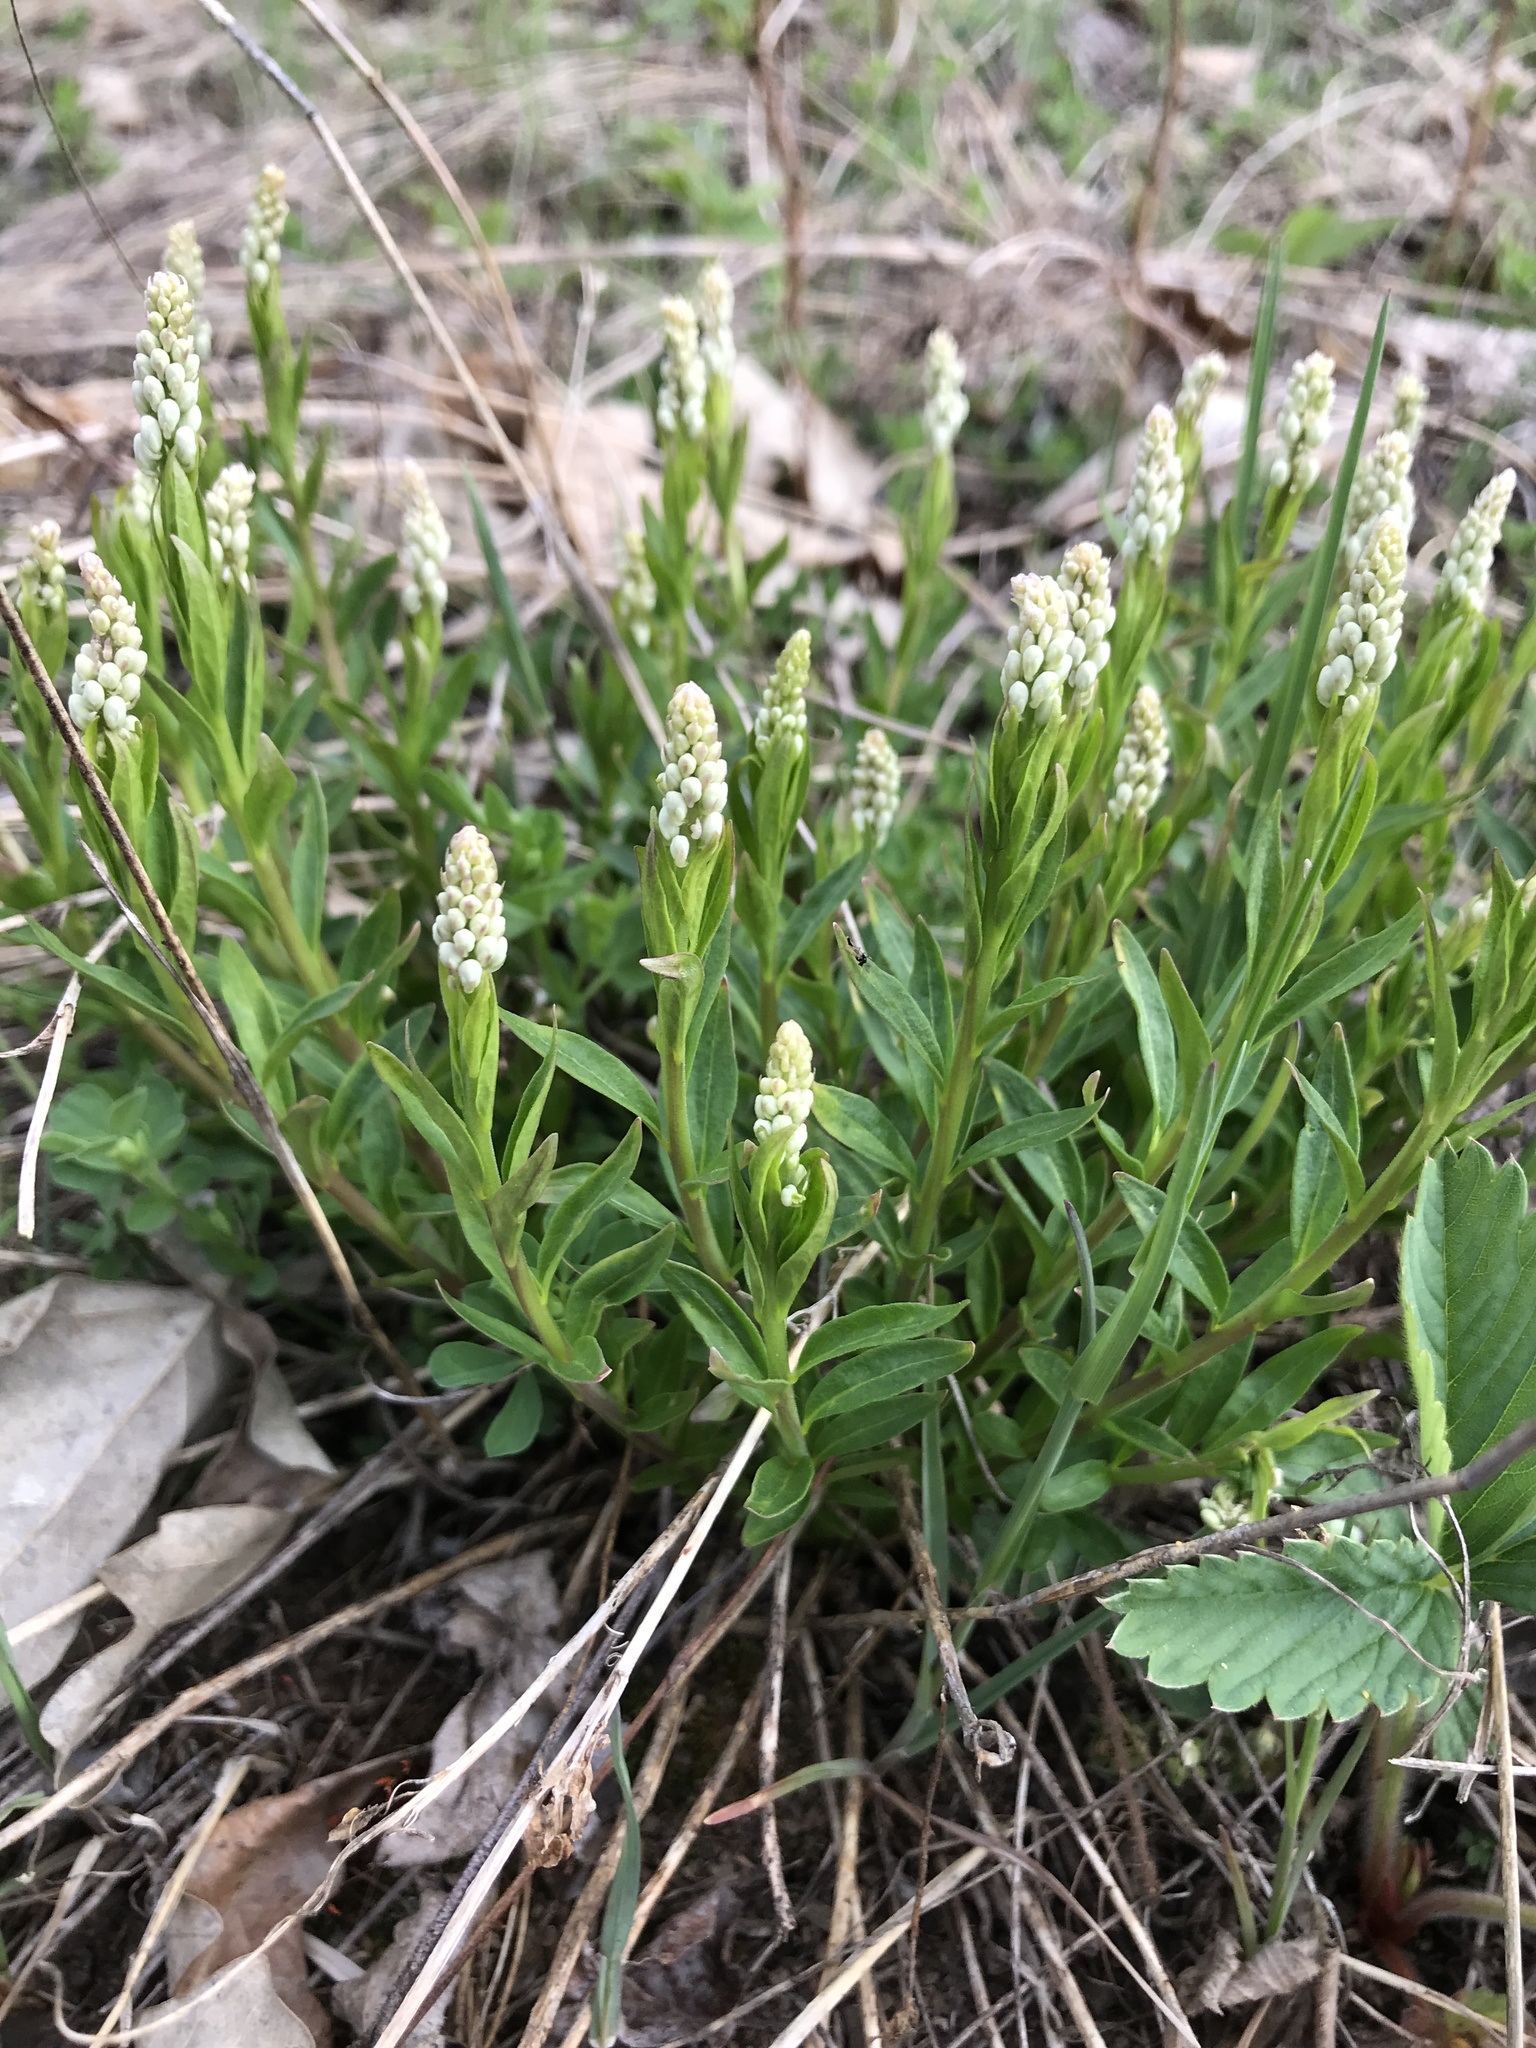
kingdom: Plantae
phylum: Tracheophyta
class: Magnoliopsida
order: Fabales
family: Polygalaceae
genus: Polygala
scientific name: Polygala senega
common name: Seneca snakeroot
